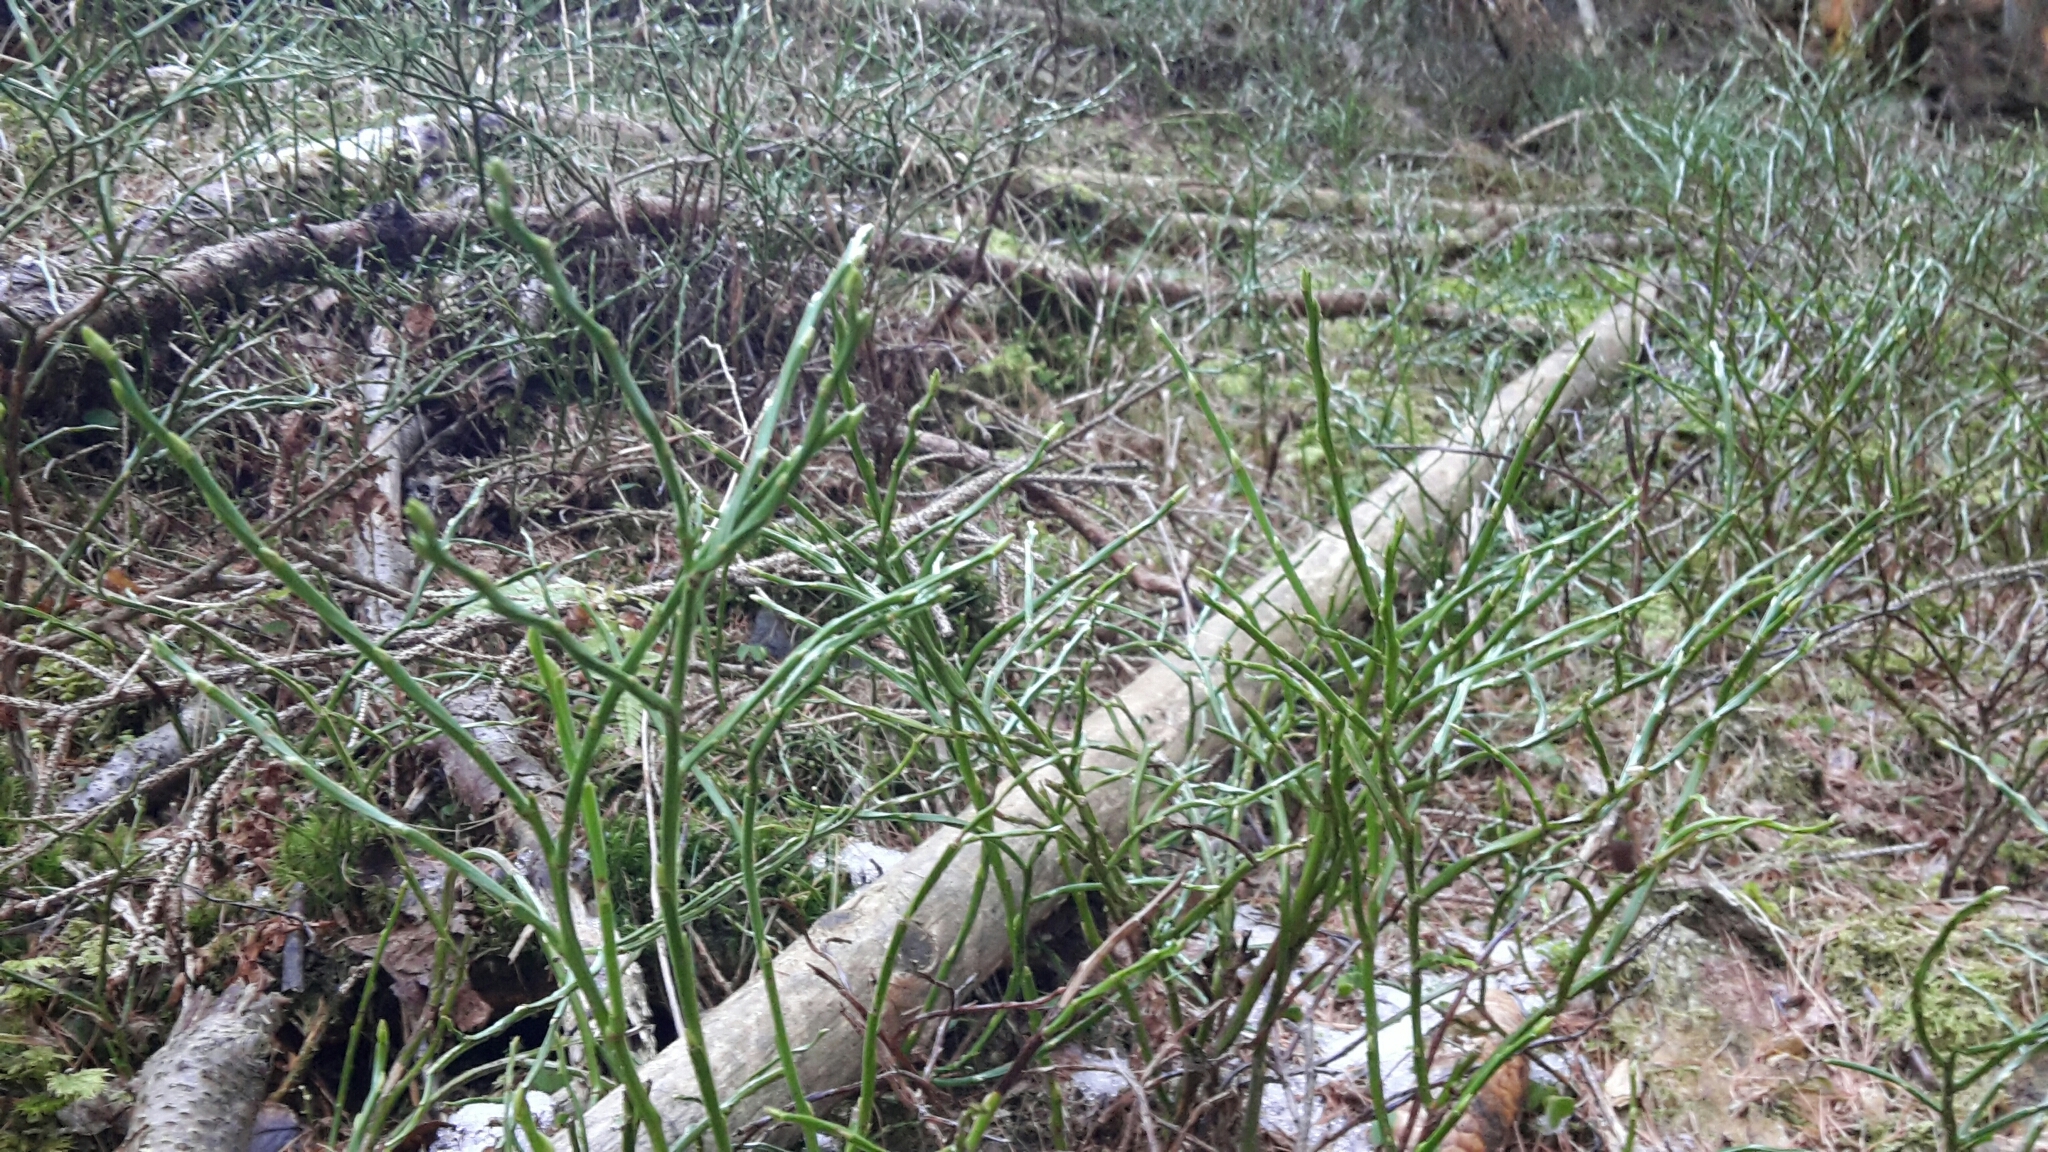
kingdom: Plantae
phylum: Tracheophyta
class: Magnoliopsida
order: Ericales
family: Ericaceae
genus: Vaccinium
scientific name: Vaccinium myrtillus
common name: Bilberry
